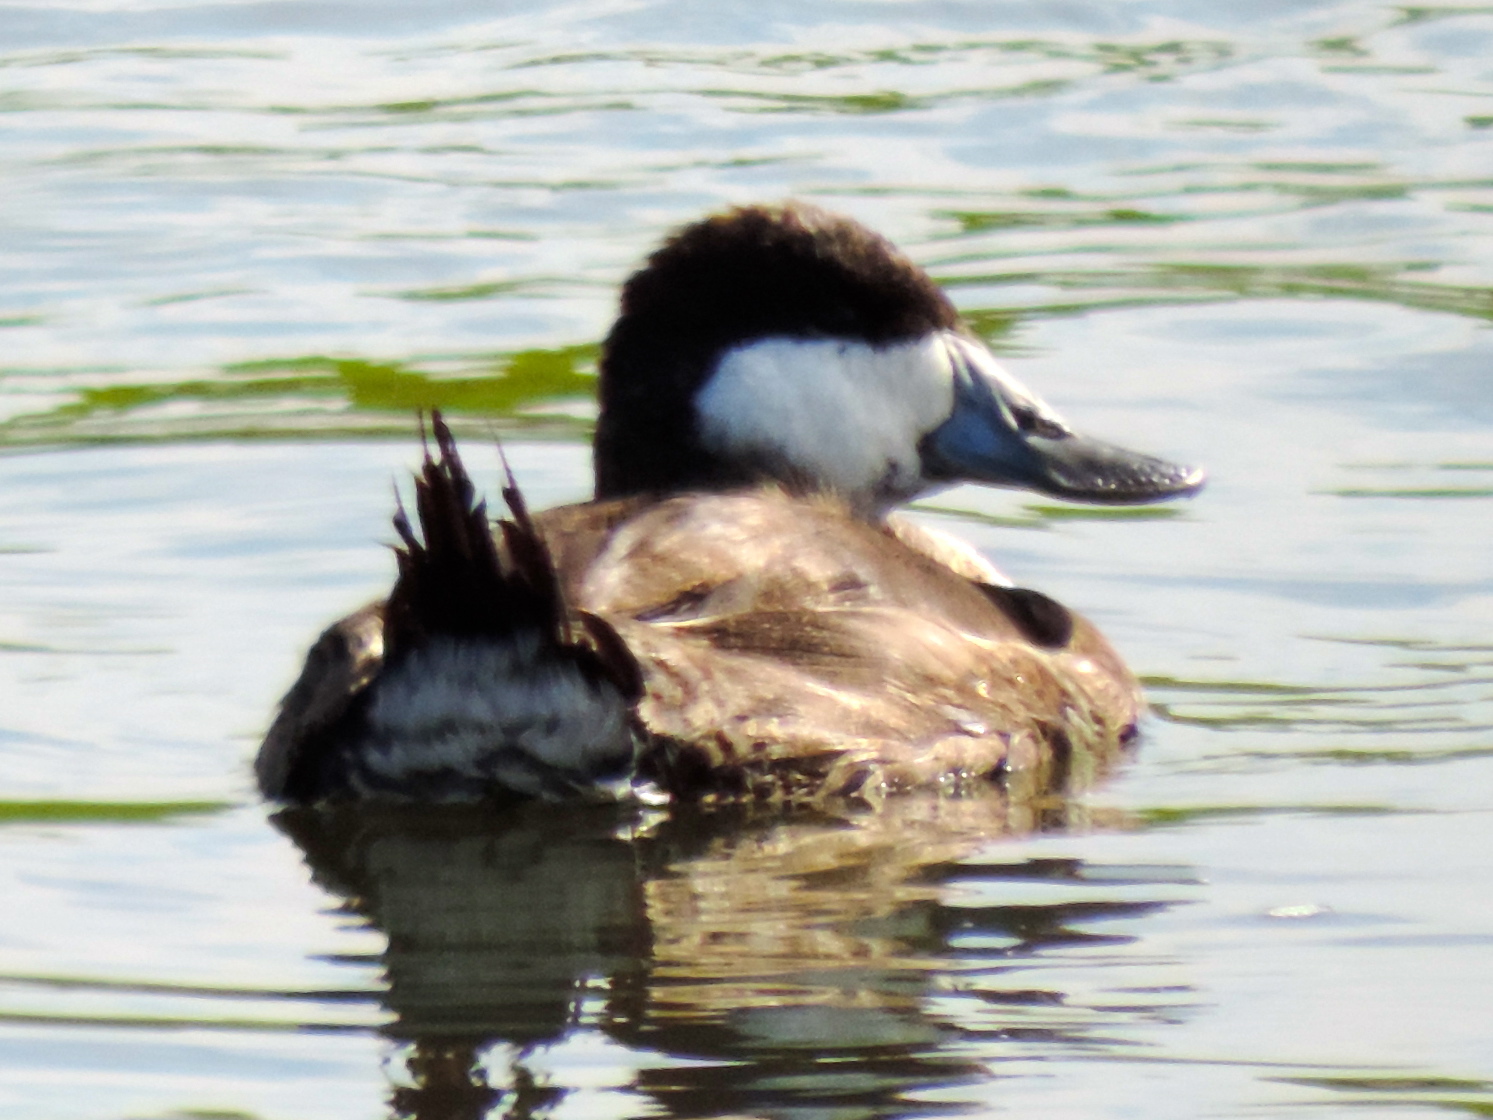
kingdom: Animalia
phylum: Chordata
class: Aves
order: Anseriformes
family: Anatidae
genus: Oxyura
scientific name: Oxyura jamaicensis
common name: Ruddy duck
